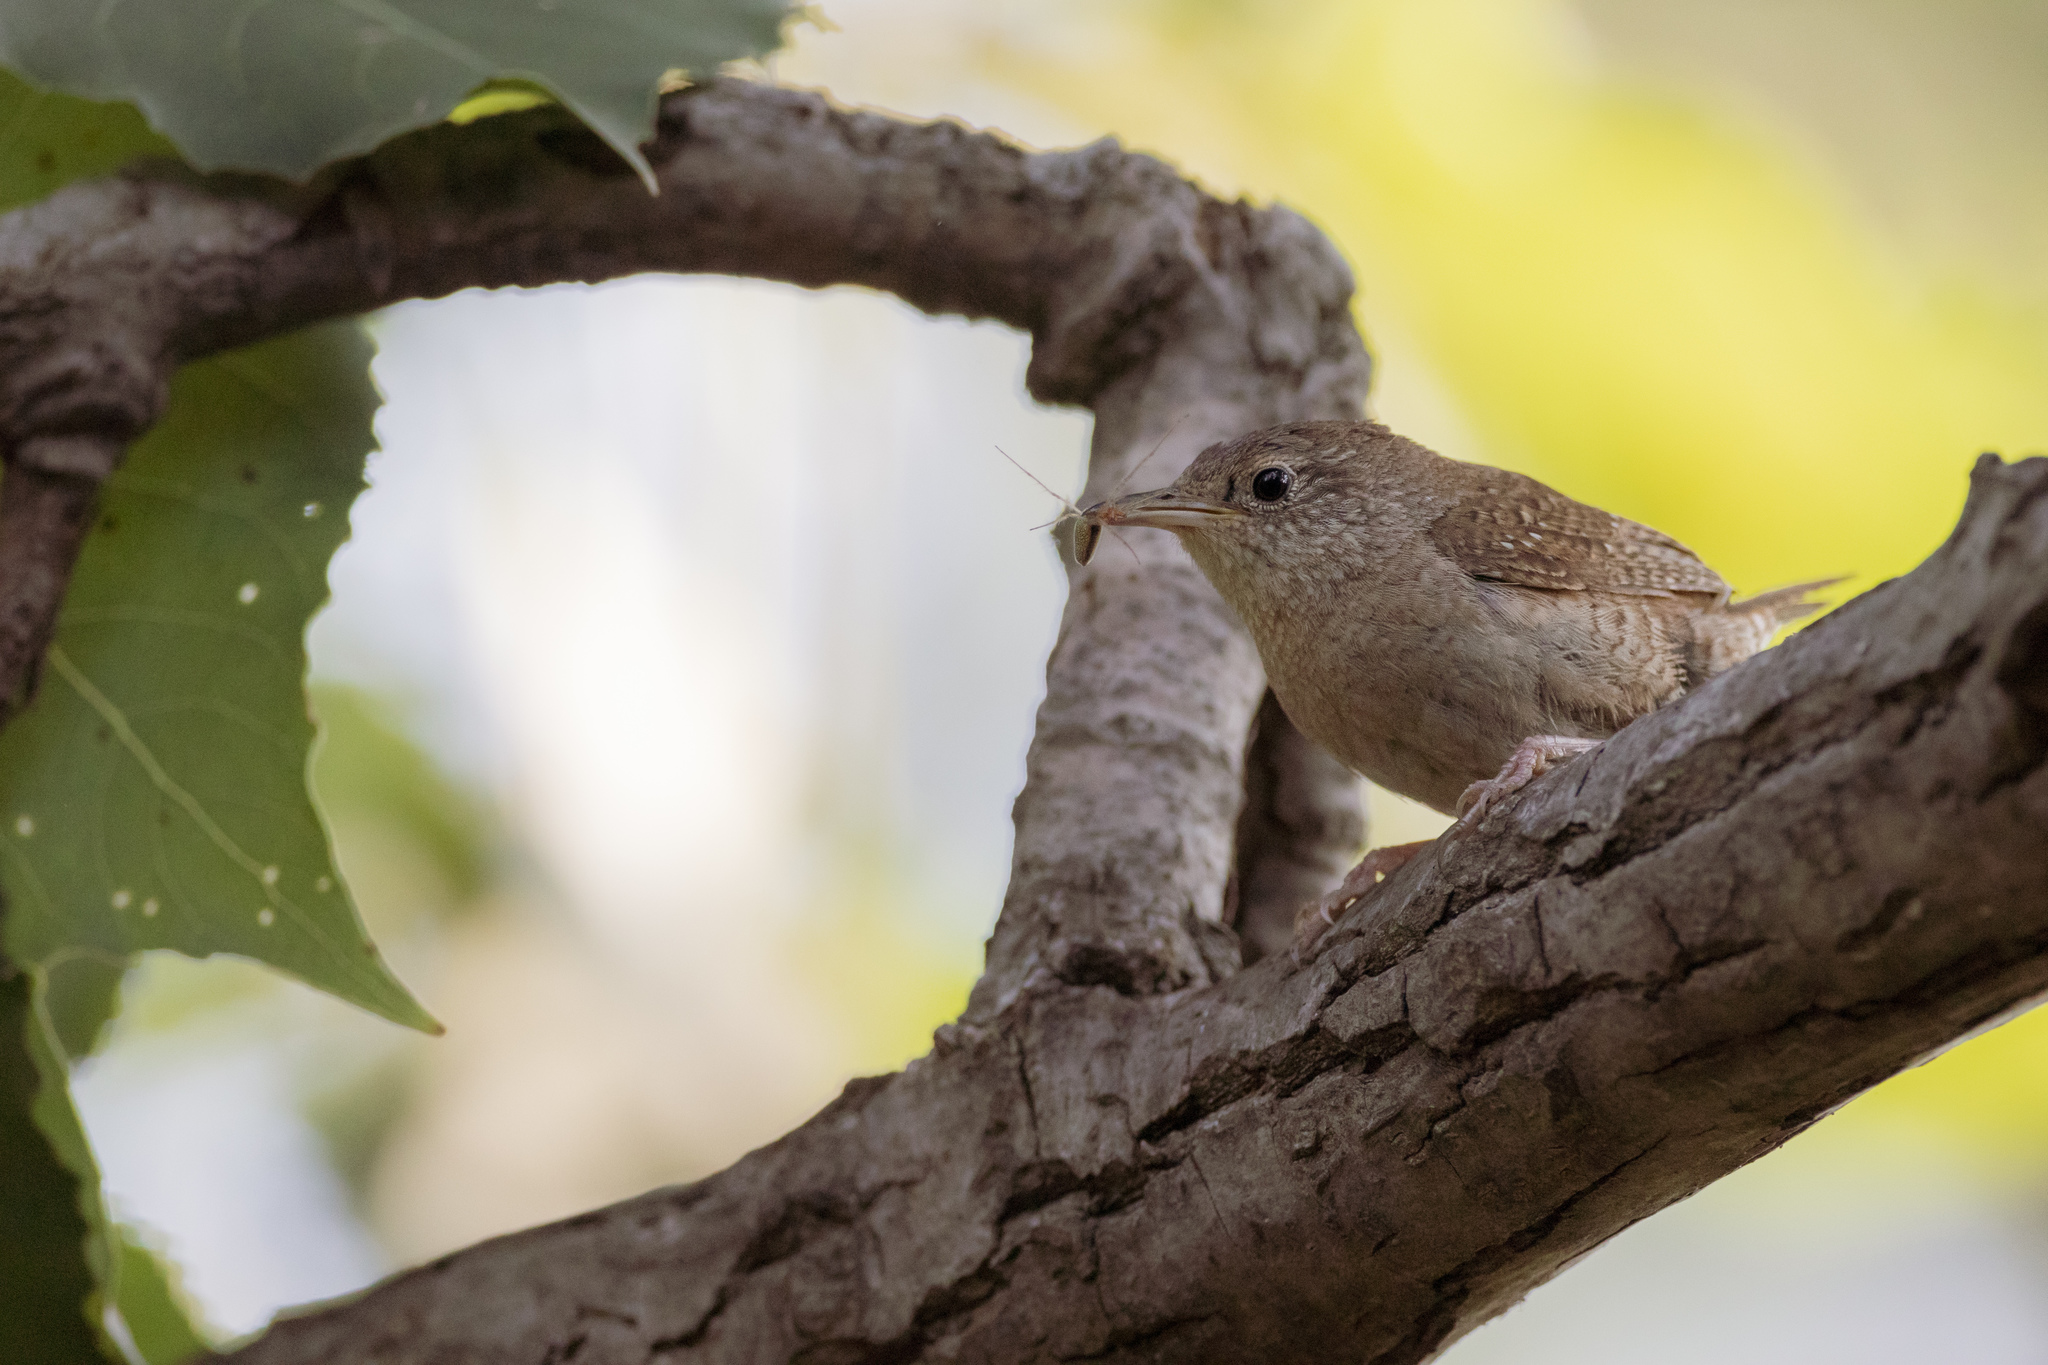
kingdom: Animalia
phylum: Chordata
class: Aves
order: Passeriformes
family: Troglodytidae
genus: Troglodytes
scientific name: Troglodytes aedon
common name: House wren
